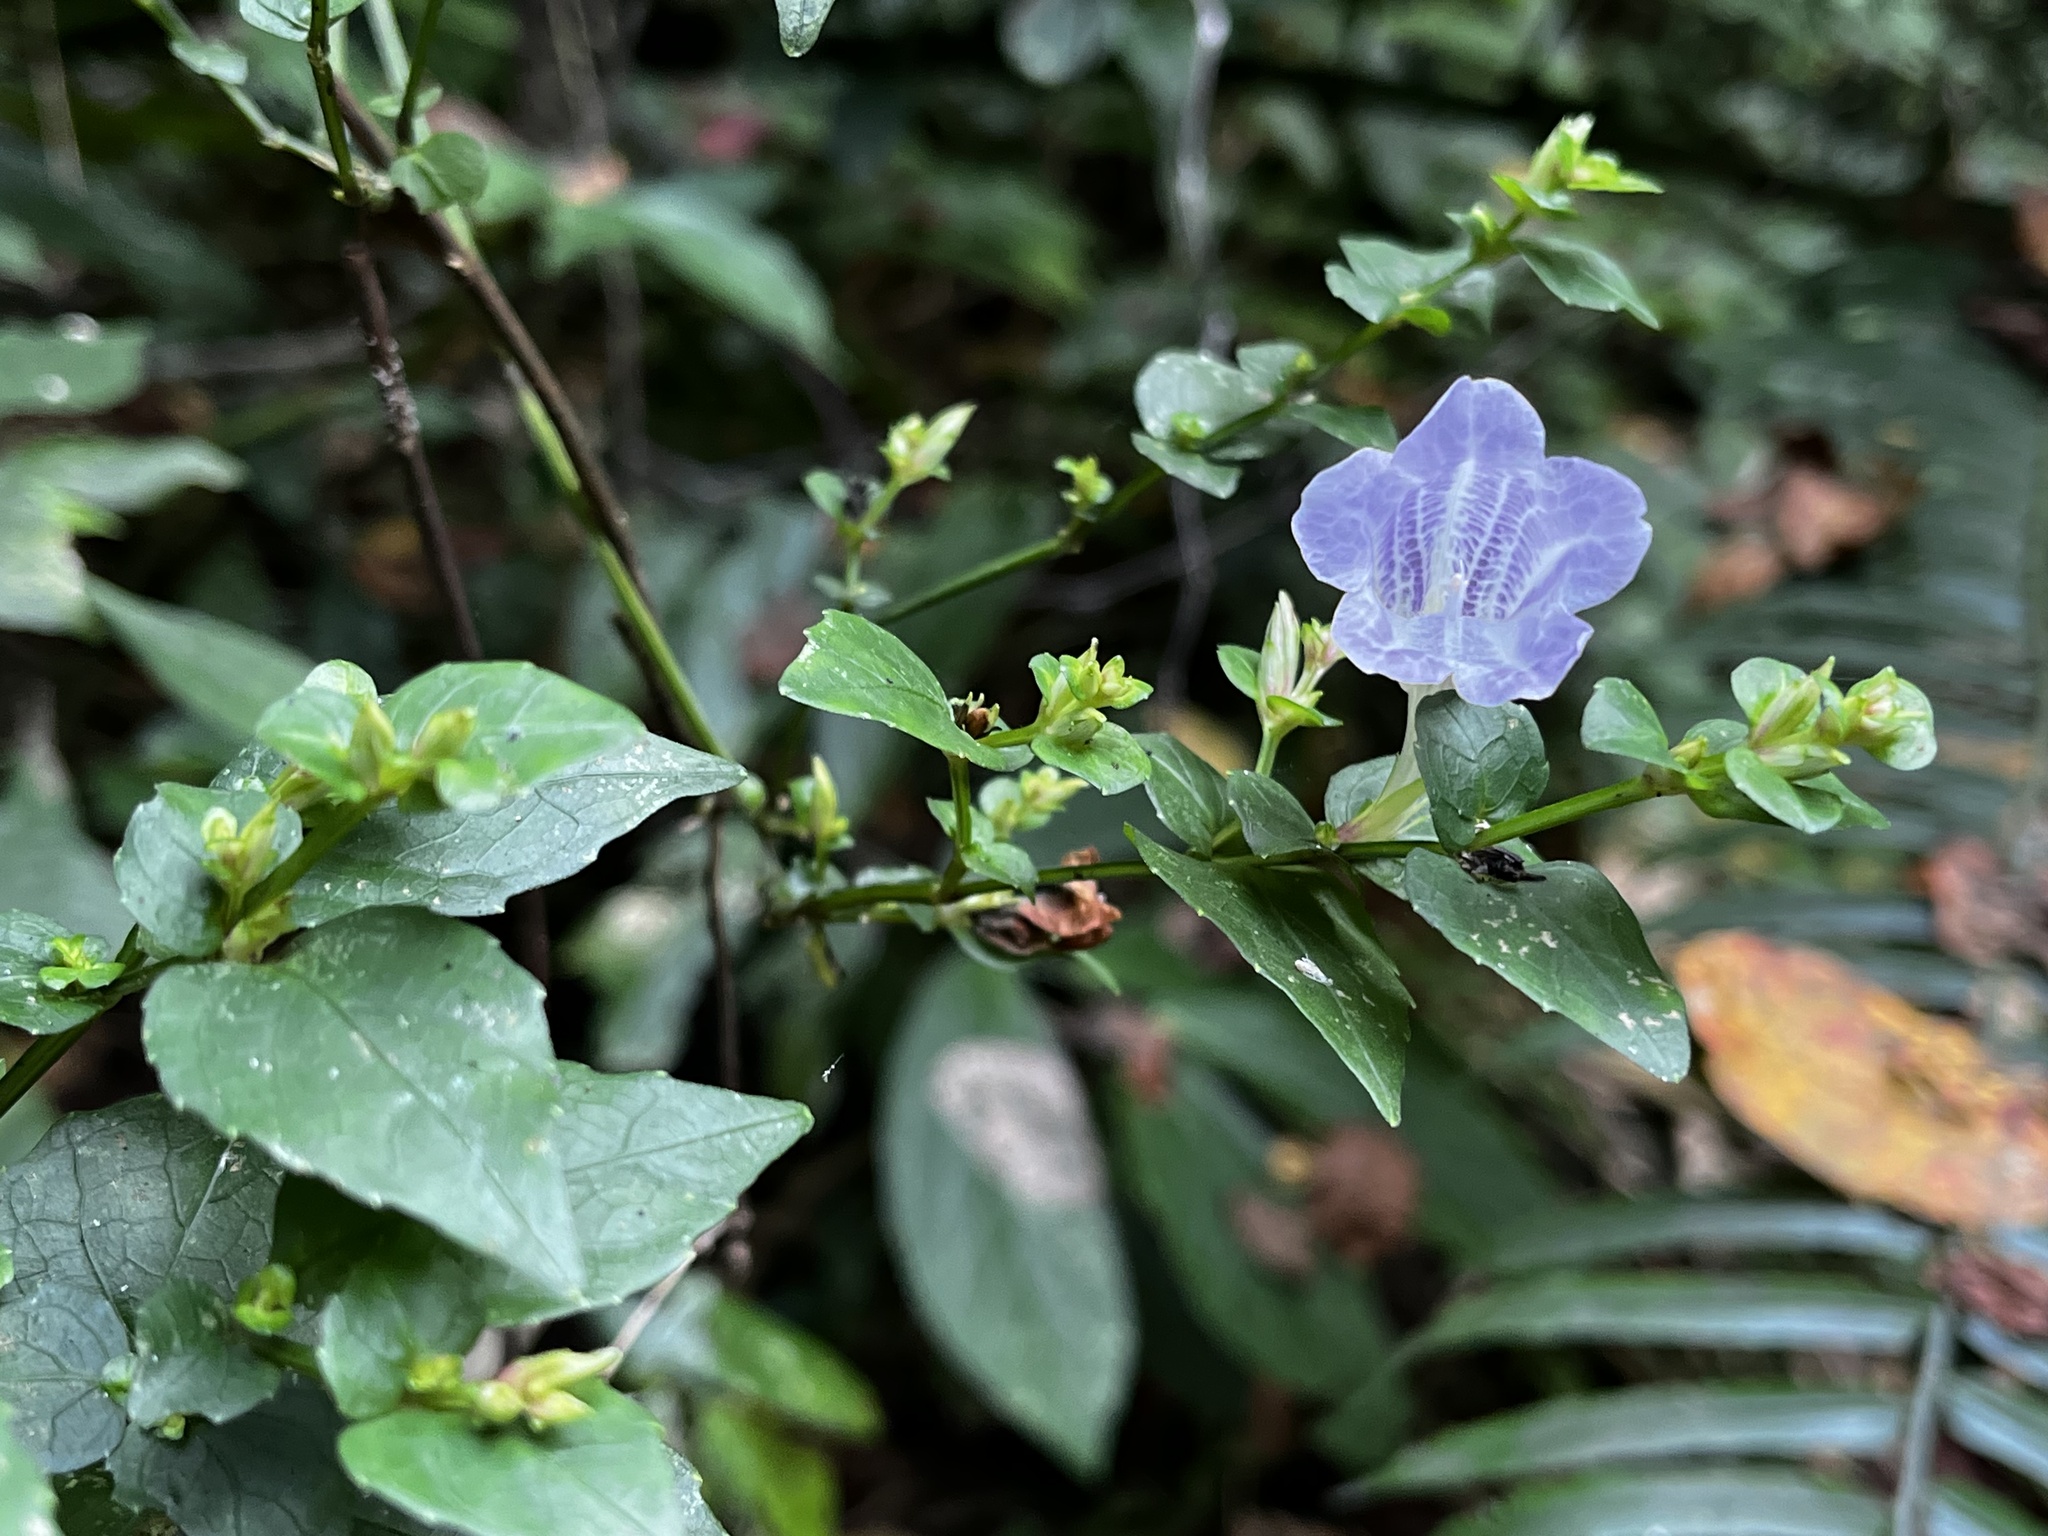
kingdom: Plantae
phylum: Tracheophyta
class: Magnoliopsida
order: Lamiales
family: Acanthaceae
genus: Strobilanthes
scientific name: Strobilanthes flexicaulis
